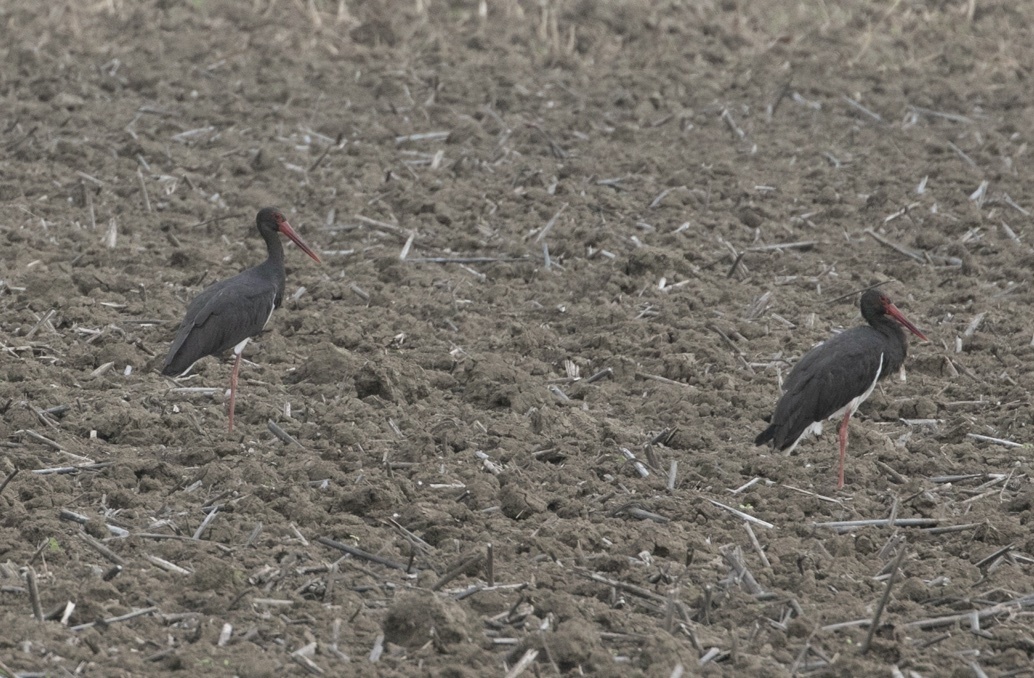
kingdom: Animalia
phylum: Chordata
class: Aves
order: Ciconiiformes
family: Ciconiidae
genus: Ciconia
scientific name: Ciconia nigra
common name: Black stork
